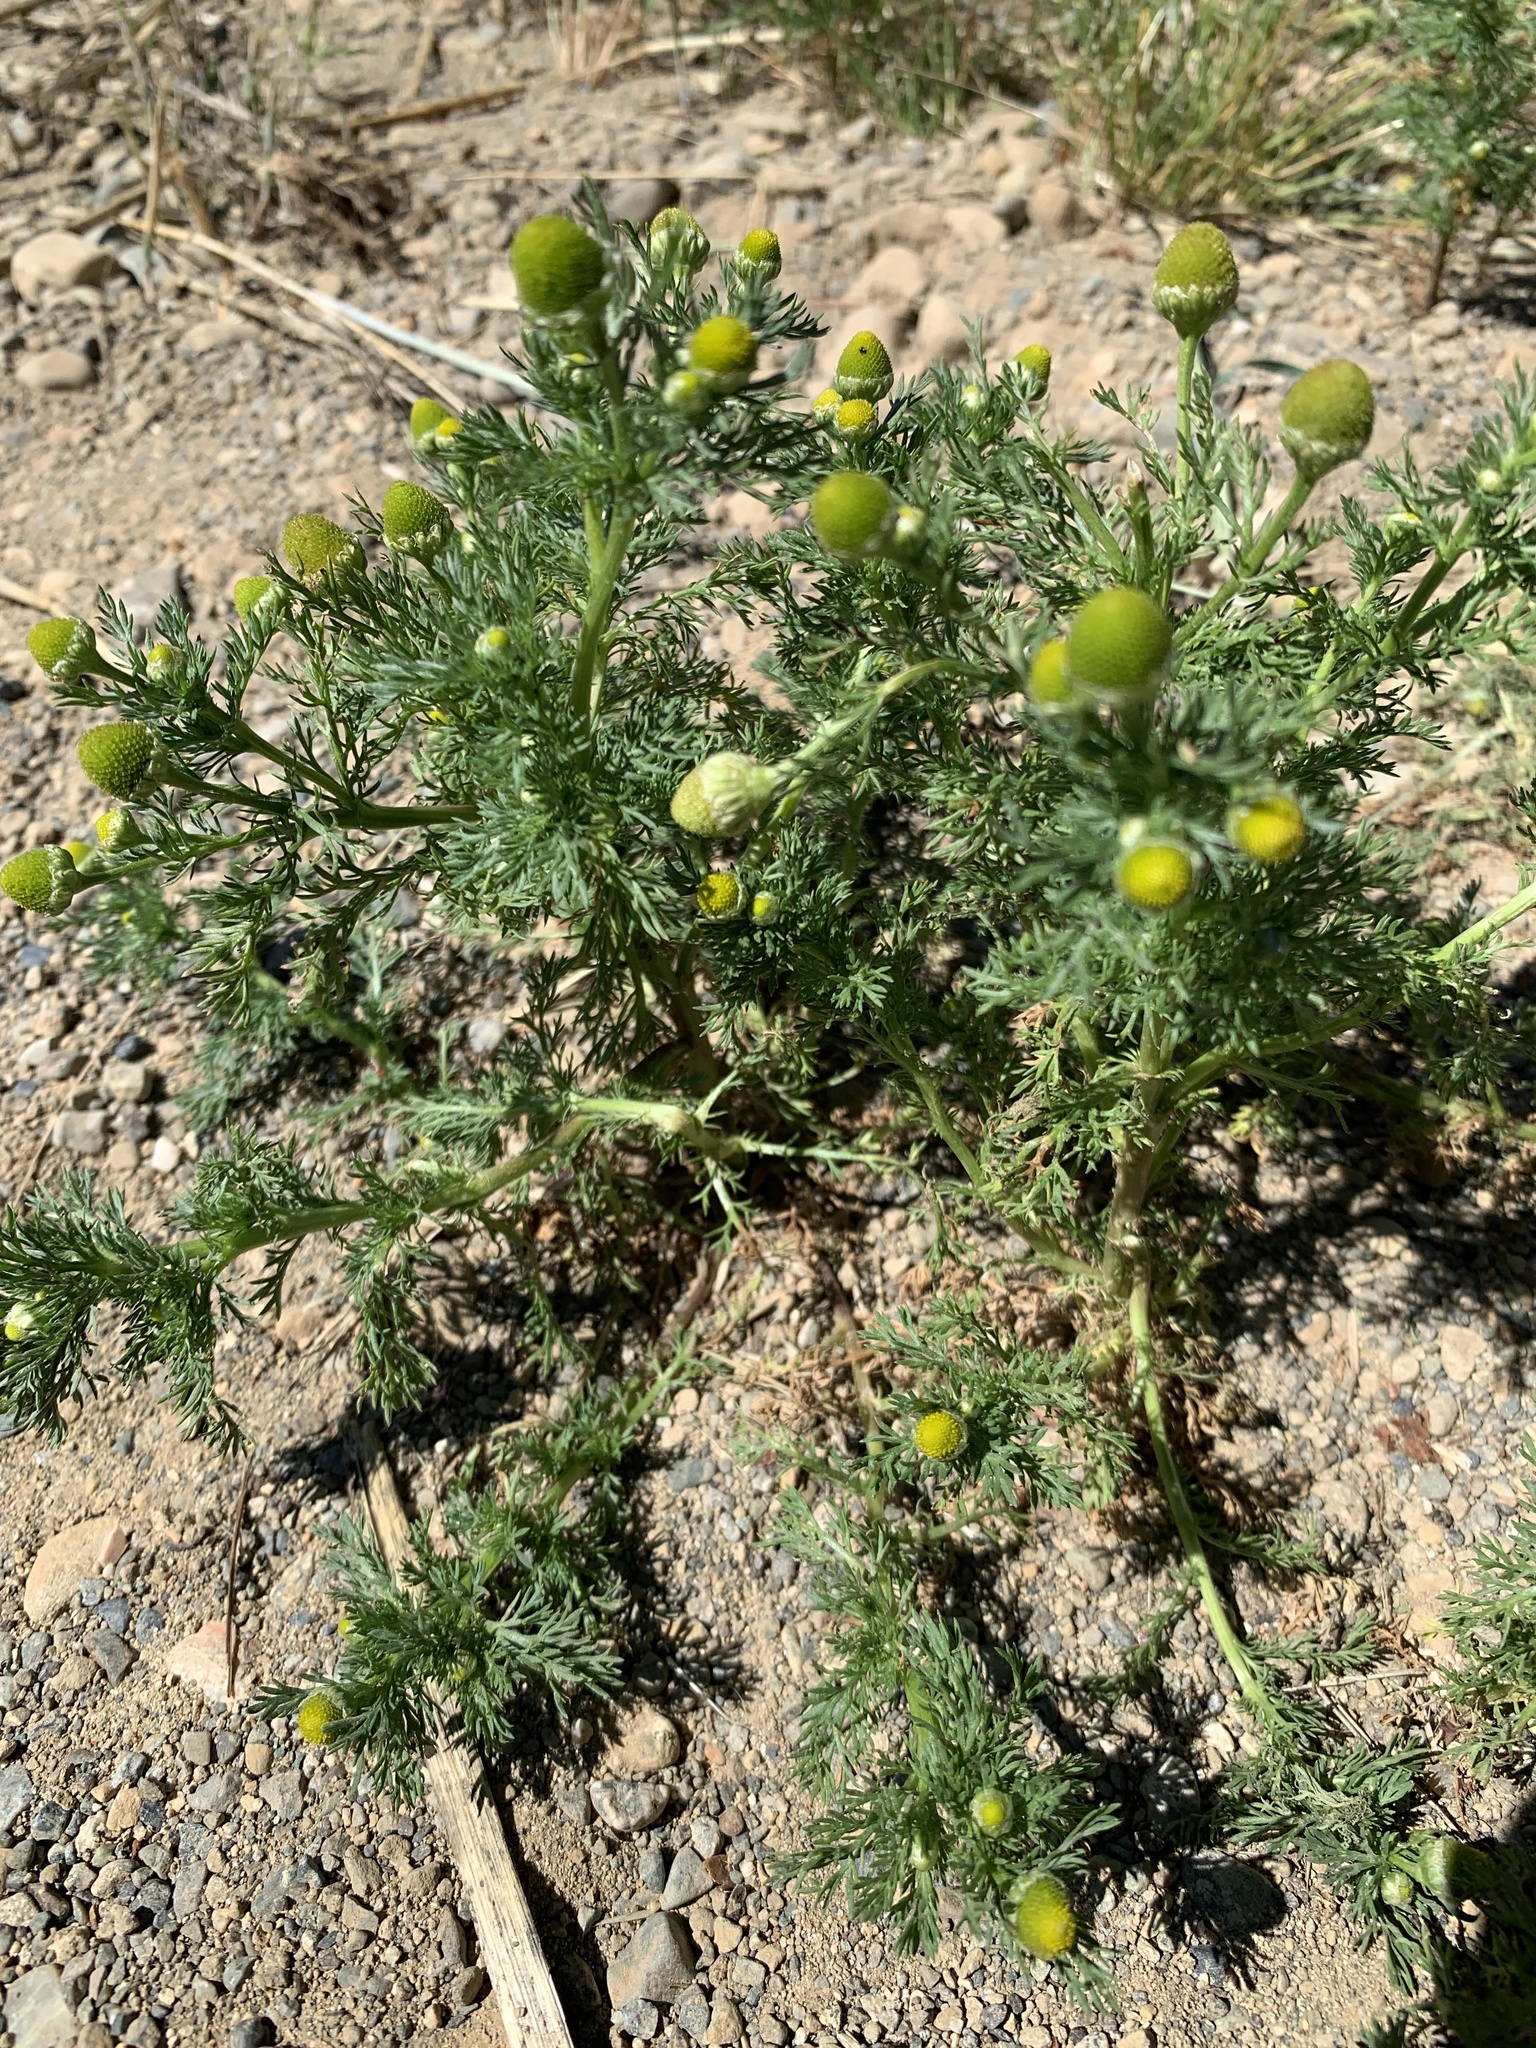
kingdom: Plantae
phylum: Tracheophyta
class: Magnoliopsida
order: Asterales
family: Asteraceae
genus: Matricaria
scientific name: Matricaria discoidea
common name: Disc mayweed
